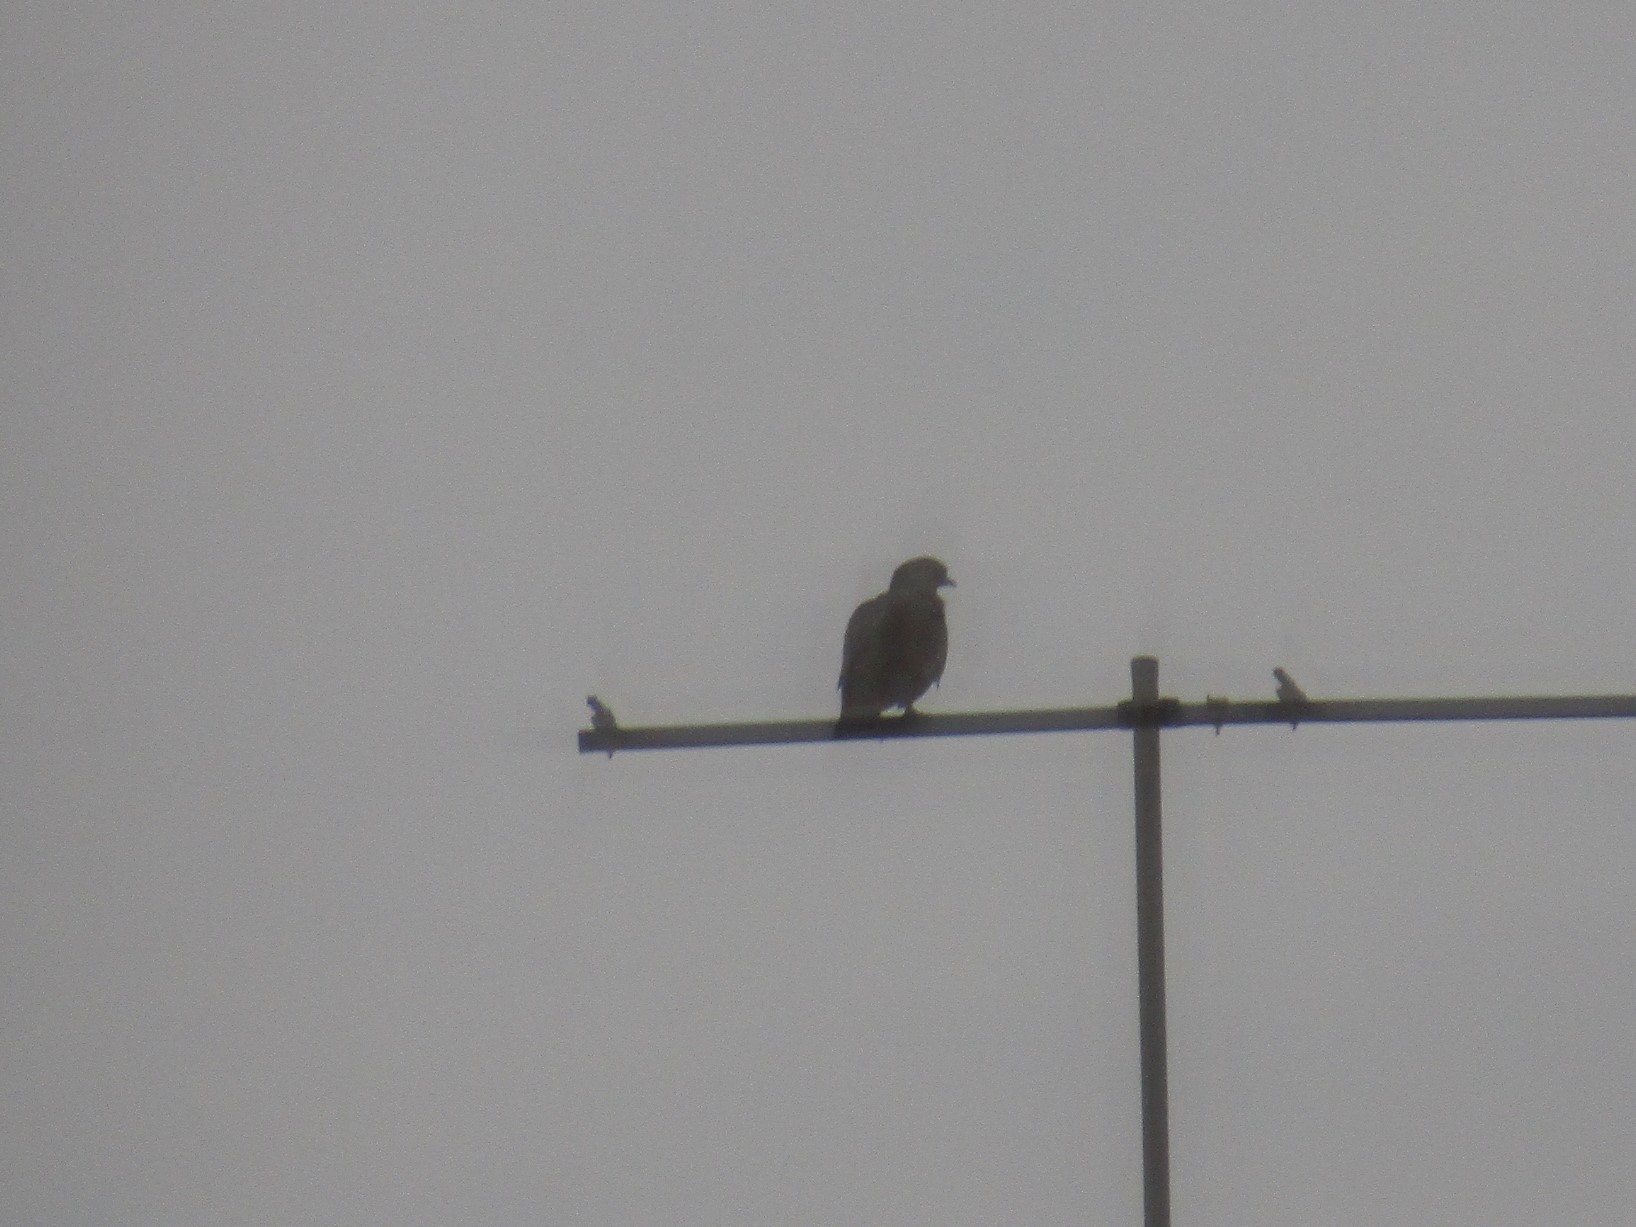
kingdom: Animalia
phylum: Chordata
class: Aves
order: Columbiformes
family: Columbidae
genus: Patagioenas
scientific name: Patagioenas picazuro
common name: Picazuro pigeon
